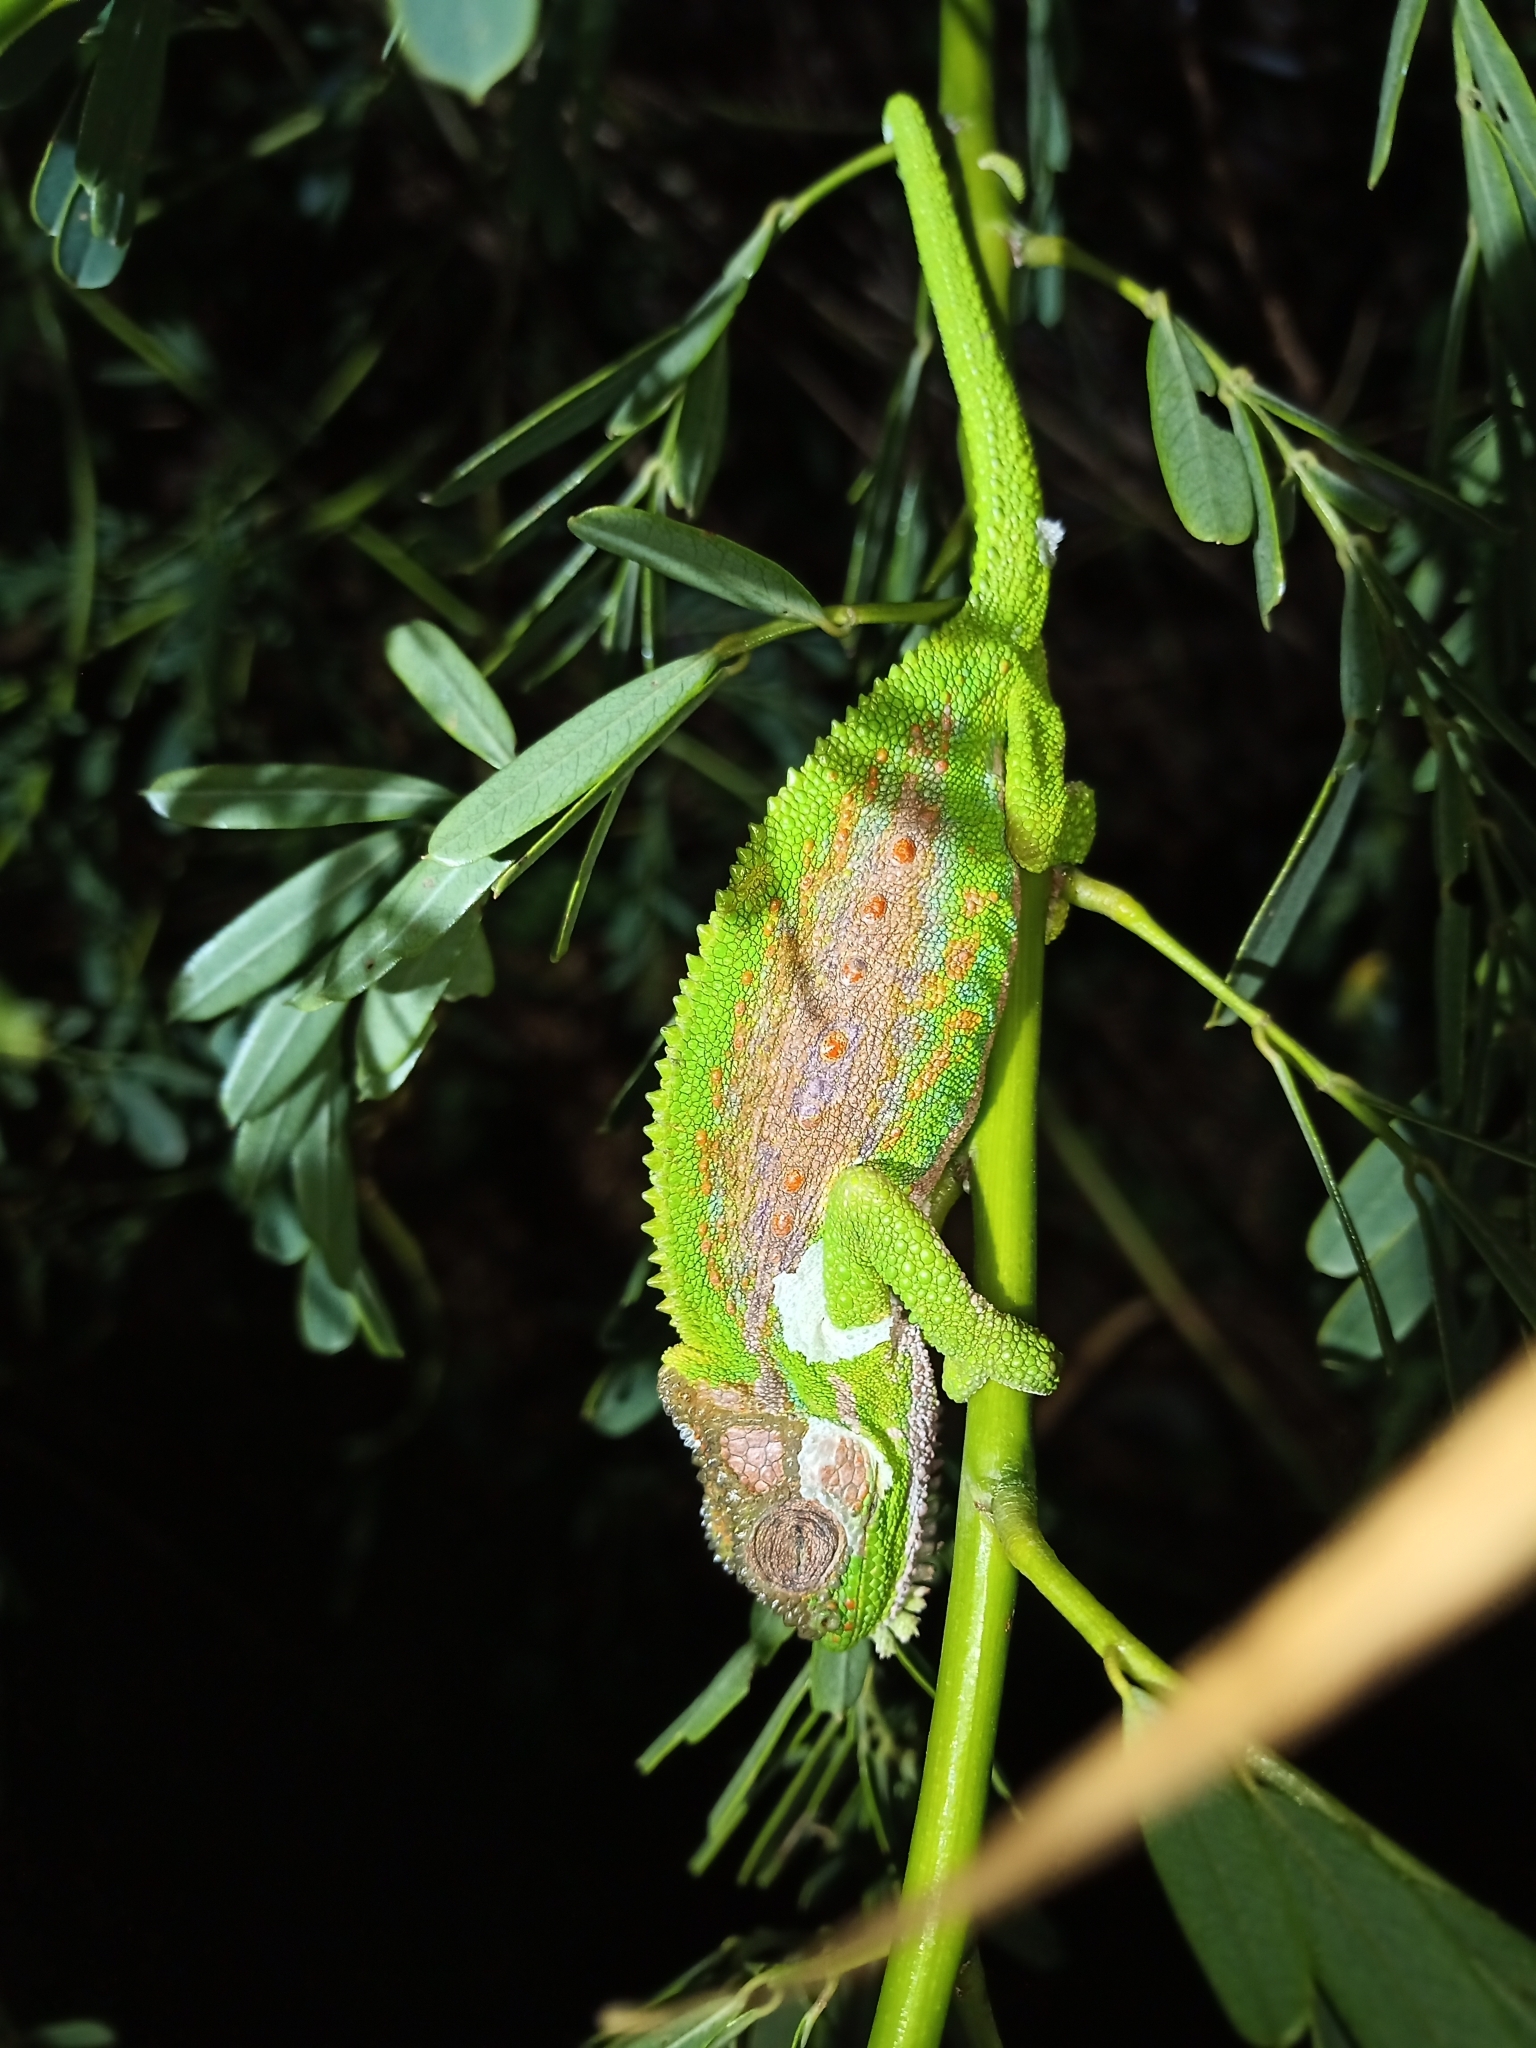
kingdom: Animalia
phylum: Chordata
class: Squamata
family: Chamaeleonidae
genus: Bradypodion
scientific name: Bradypodion pumilum
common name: Cape dwarf chameleon
